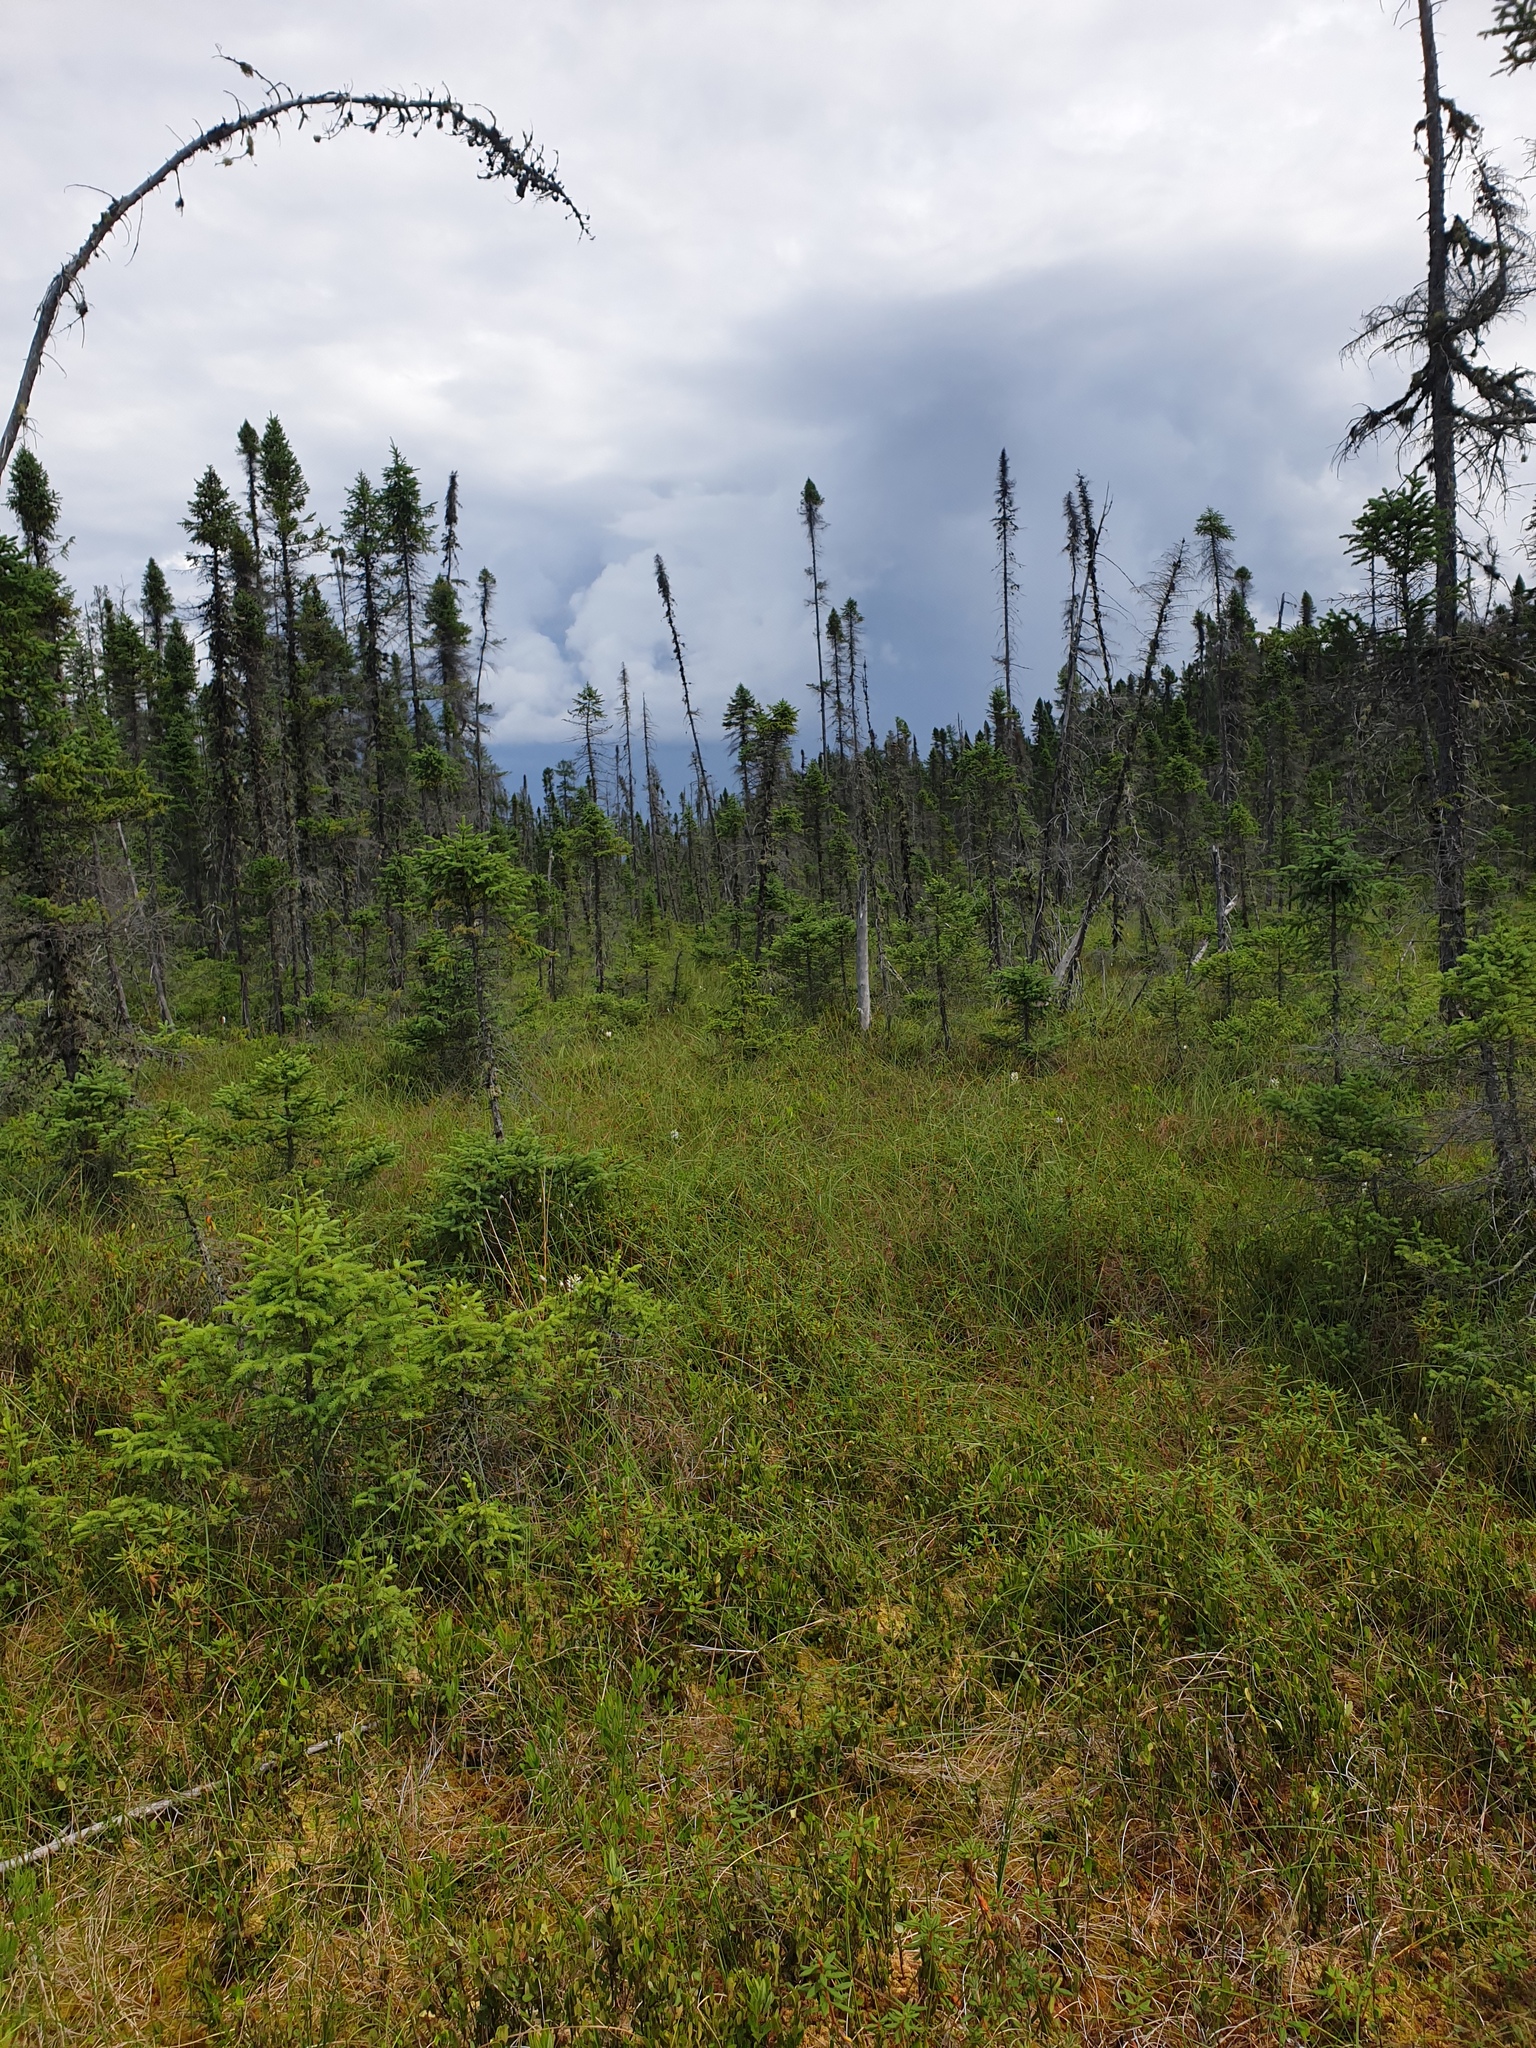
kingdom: Plantae
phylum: Tracheophyta
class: Liliopsida
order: Asparagales
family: Orchidaceae
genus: Platanthera
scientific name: Platanthera blephariglottis
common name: White fringed orchid
